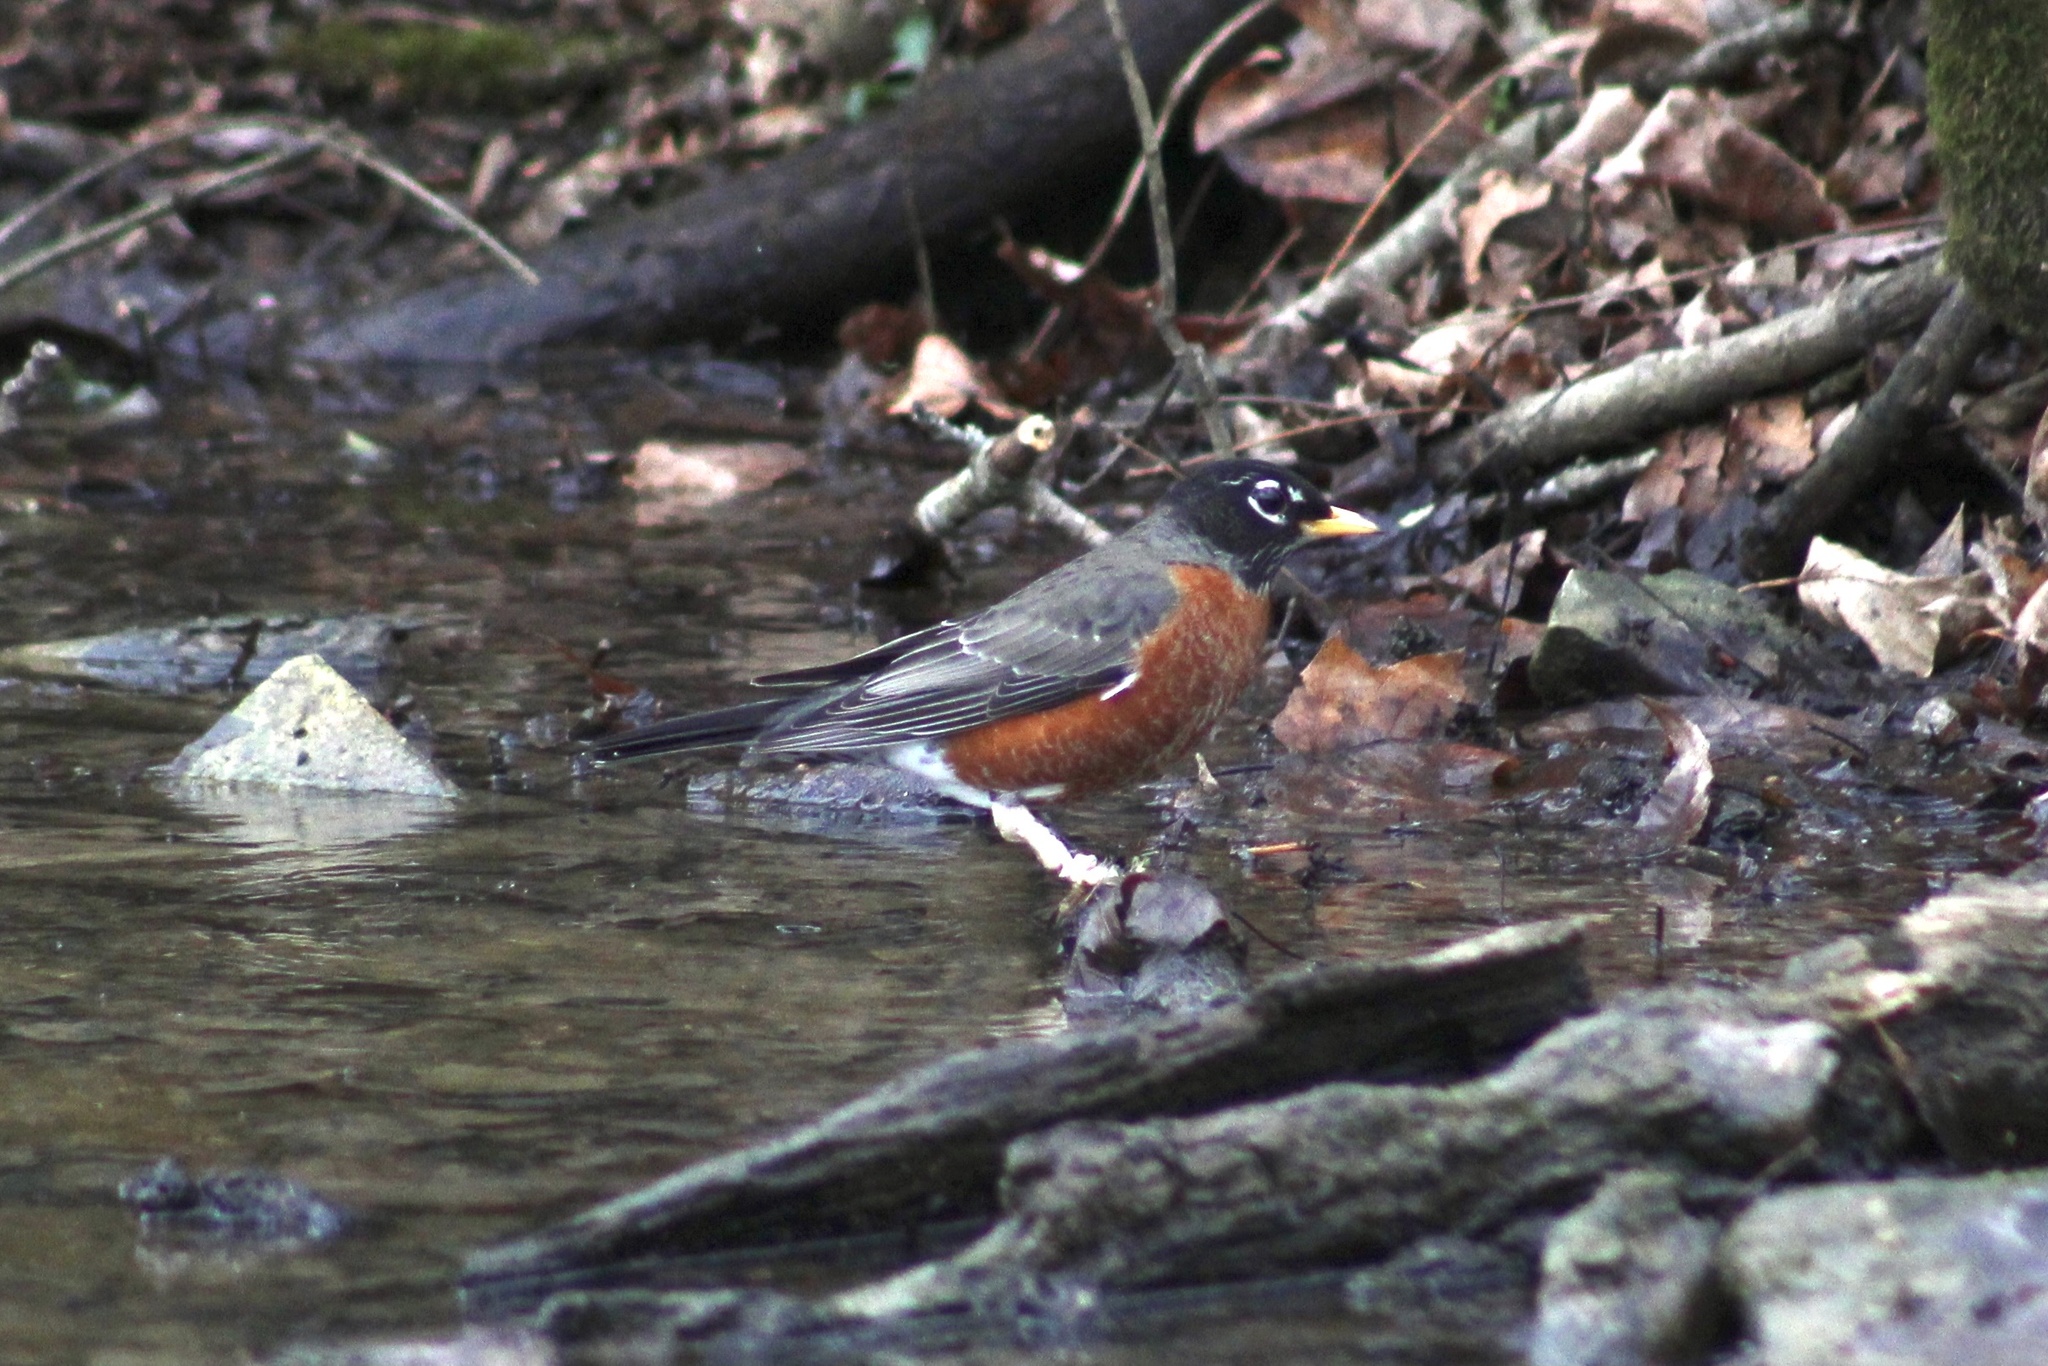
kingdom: Animalia
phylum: Chordata
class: Aves
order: Passeriformes
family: Turdidae
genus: Turdus
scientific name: Turdus migratorius
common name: American robin
